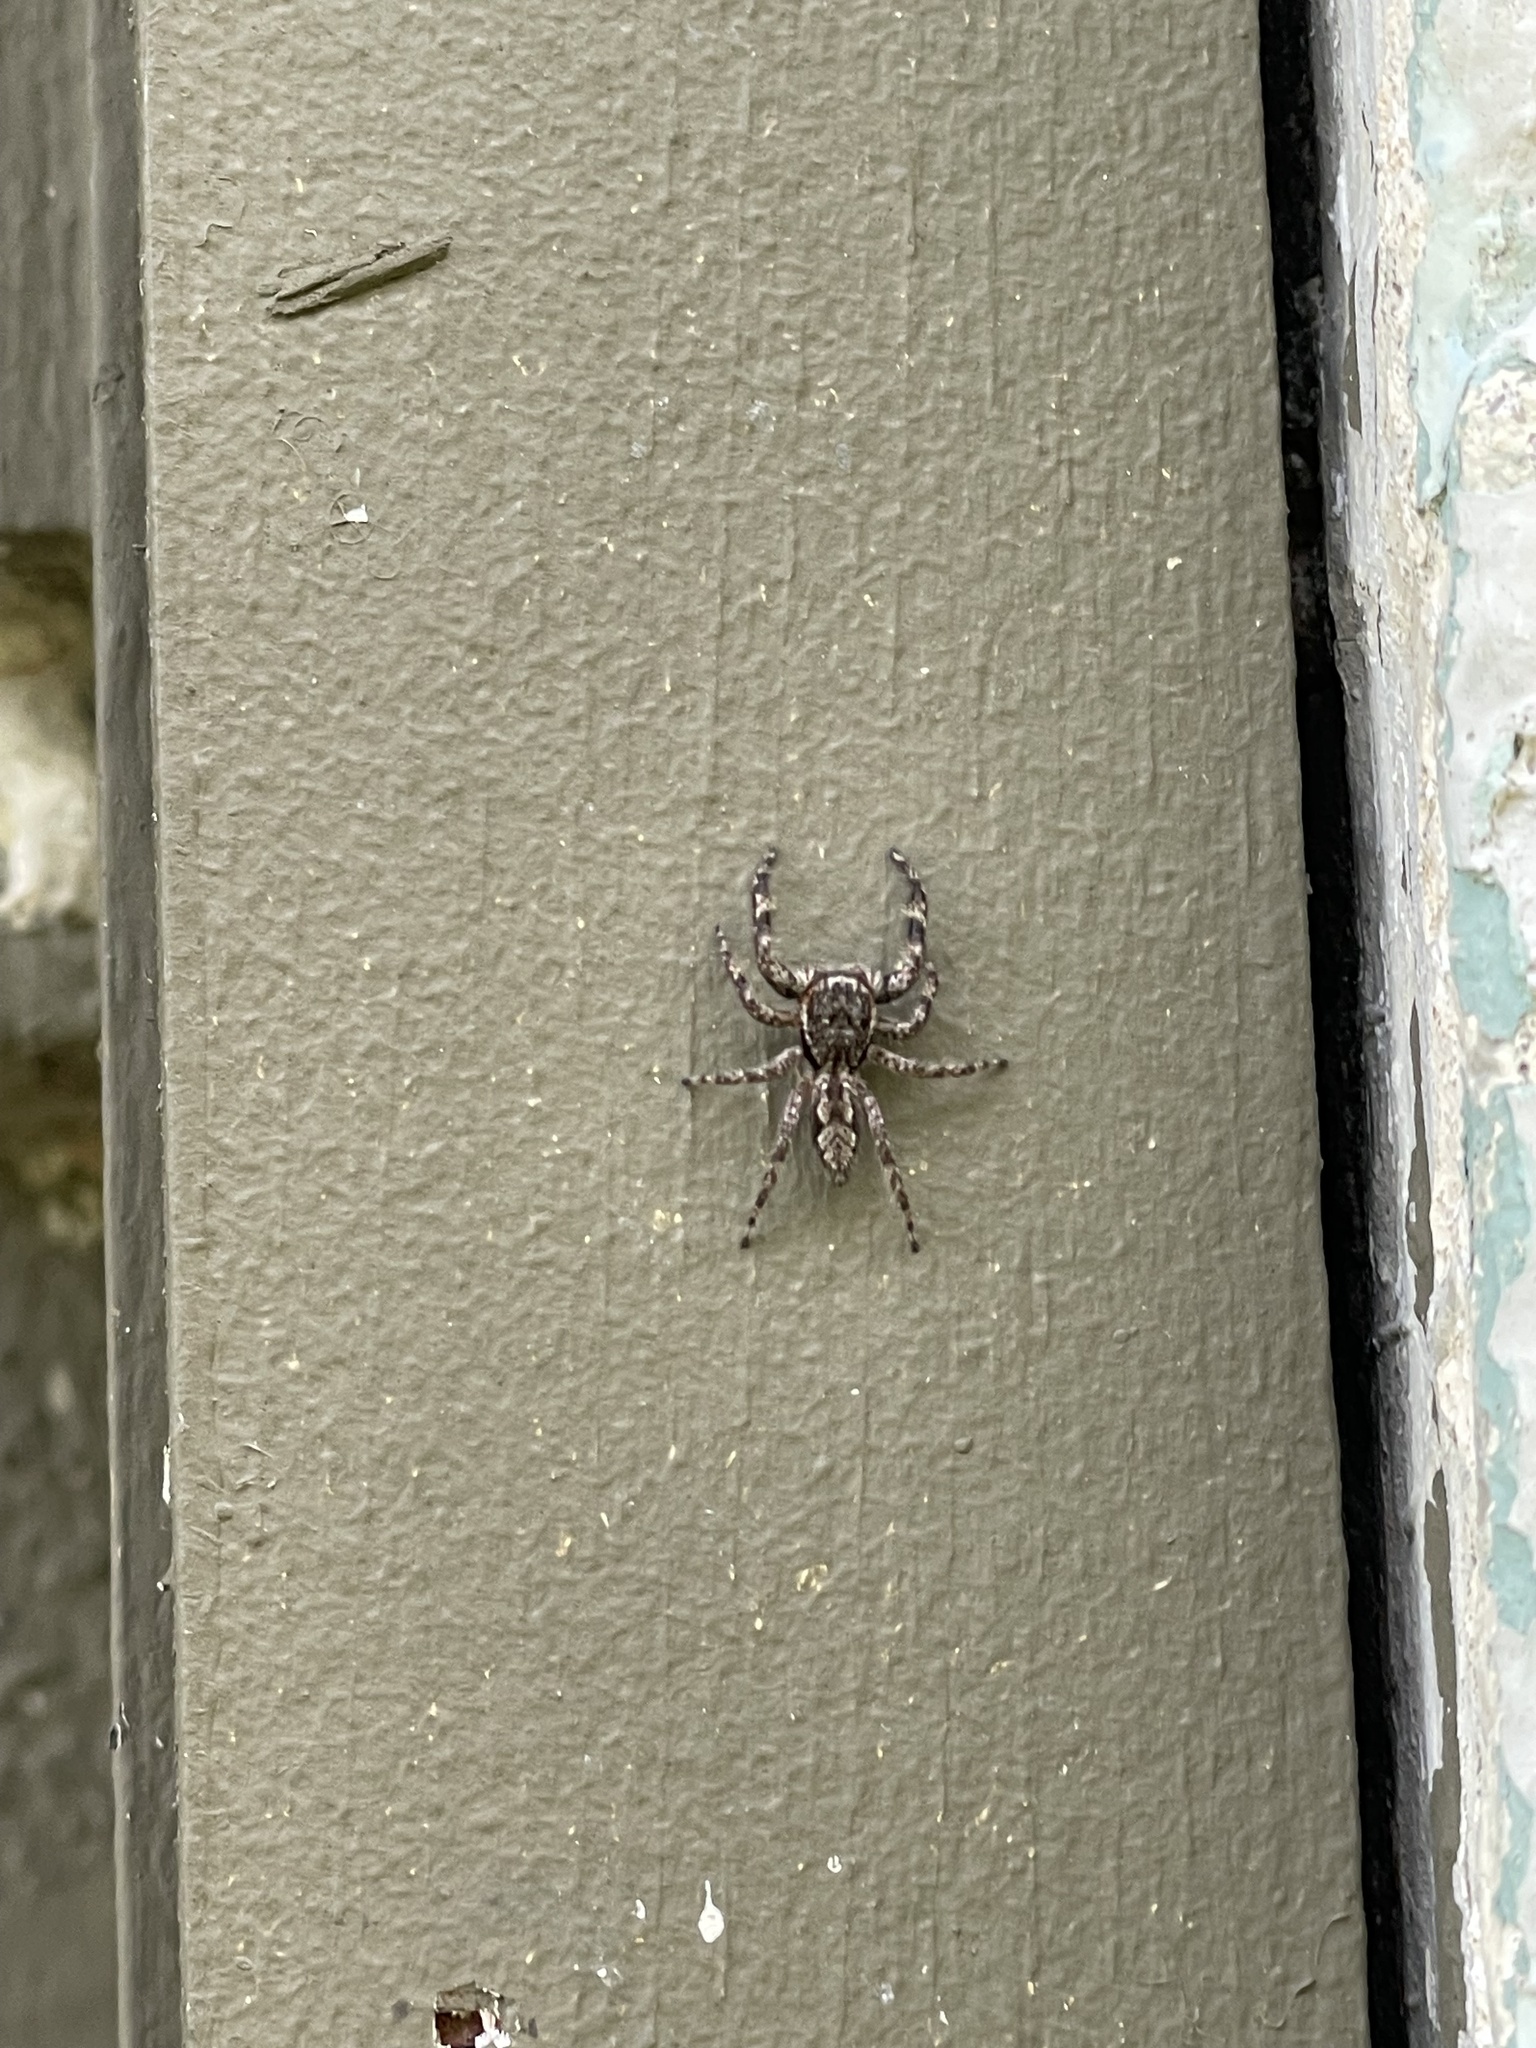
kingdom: Animalia
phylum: Arthropoda
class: Arachnida
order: Araneae
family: Salticidae
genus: Platycryptus
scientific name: Platycryptus undatus
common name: Tan jumping spider
